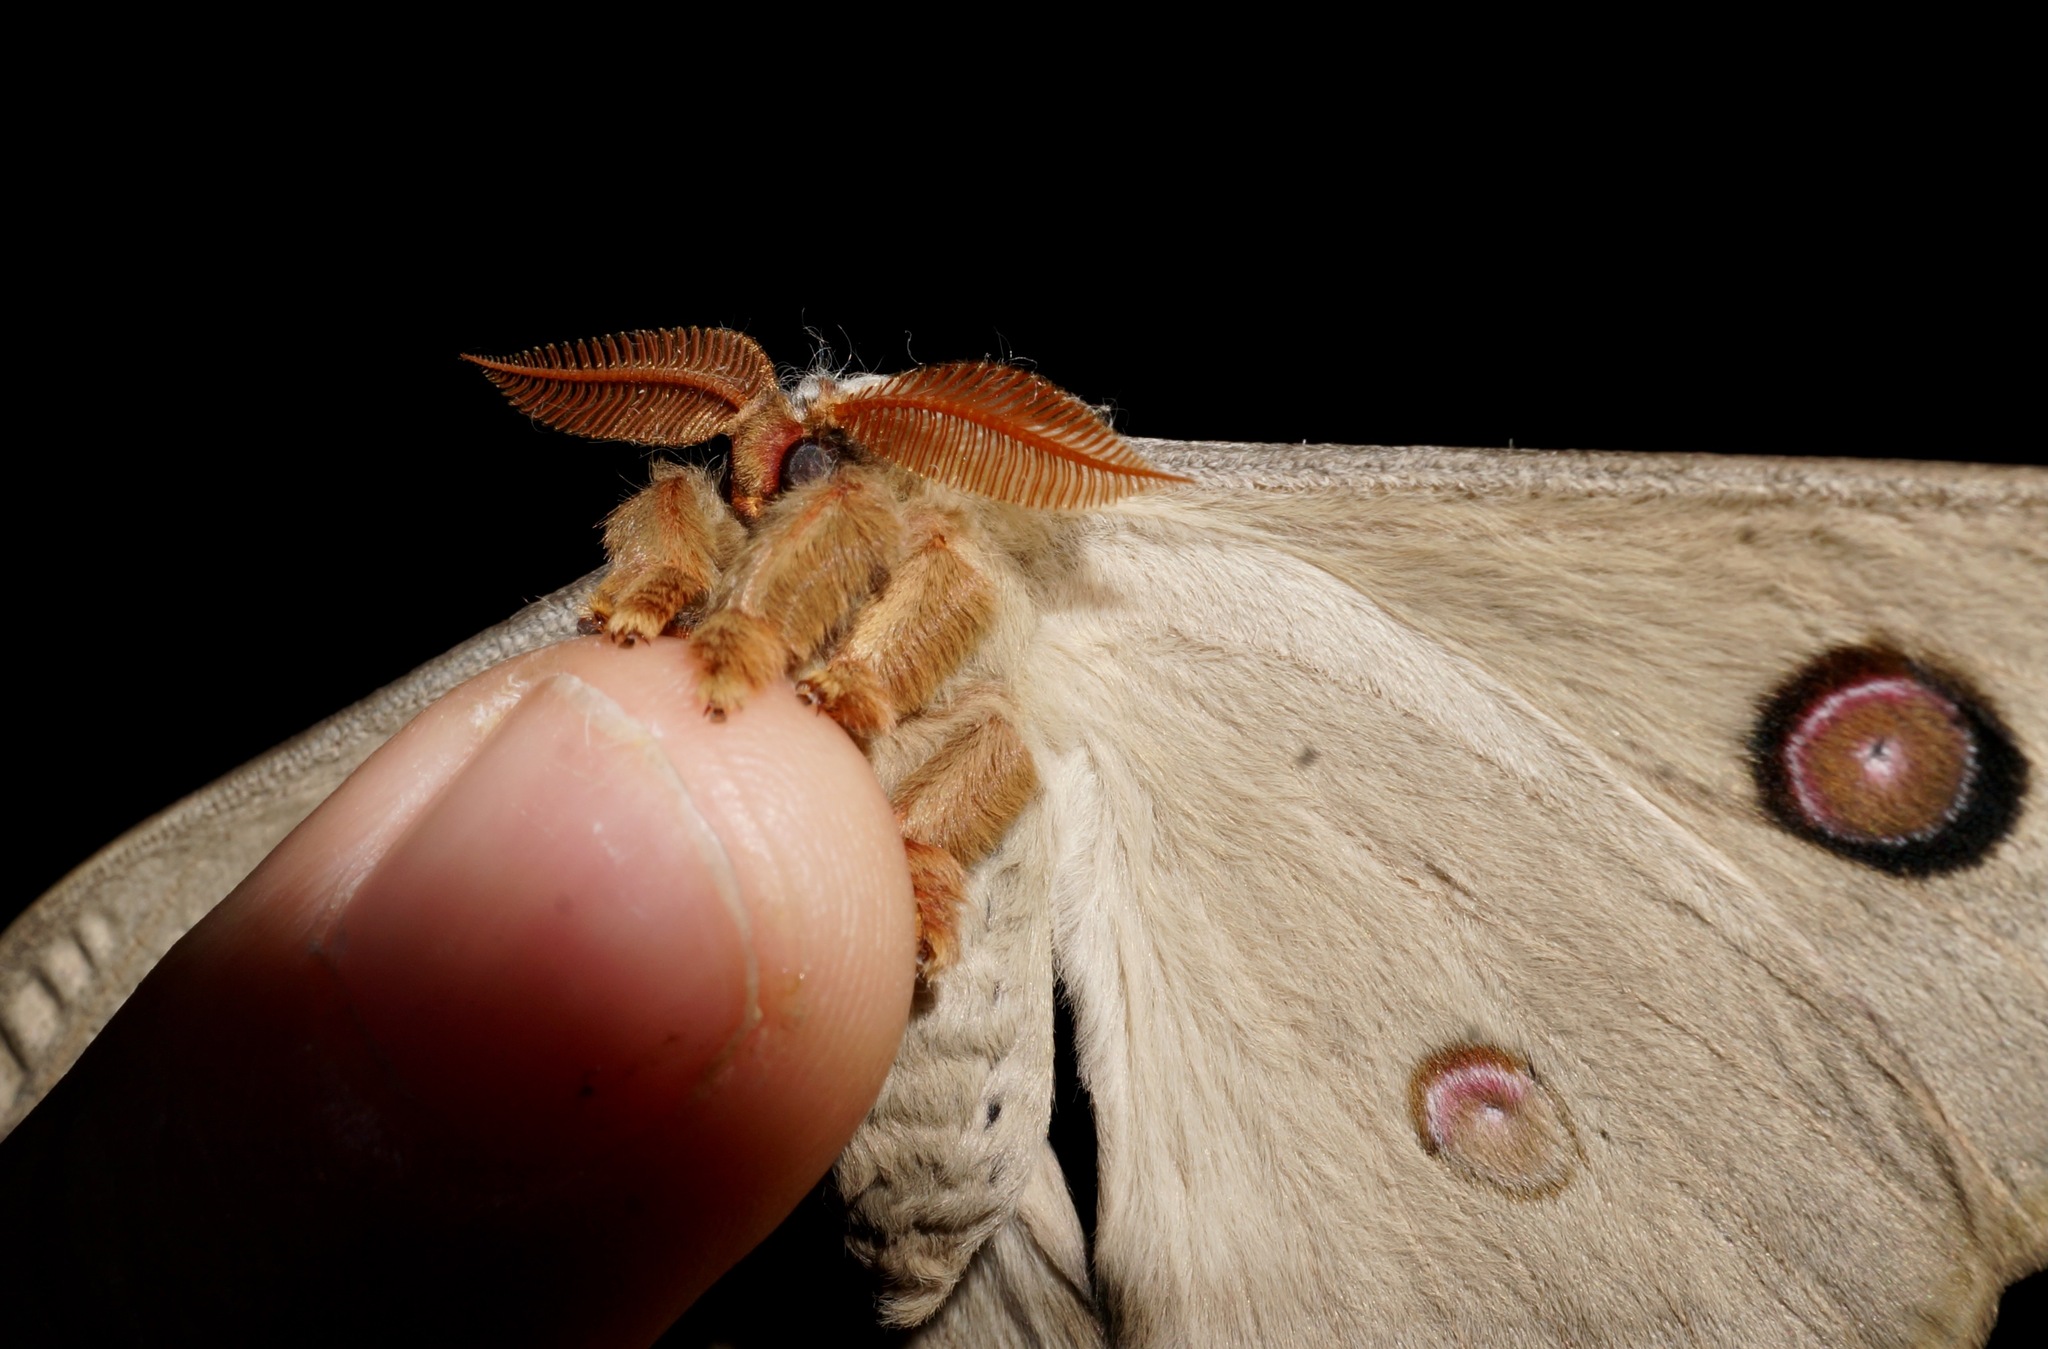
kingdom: Animalia
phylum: Arthropoda
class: Insecta
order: Lepidoptera
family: Saturniidae
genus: Opodiphthera
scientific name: Opodiphthera
